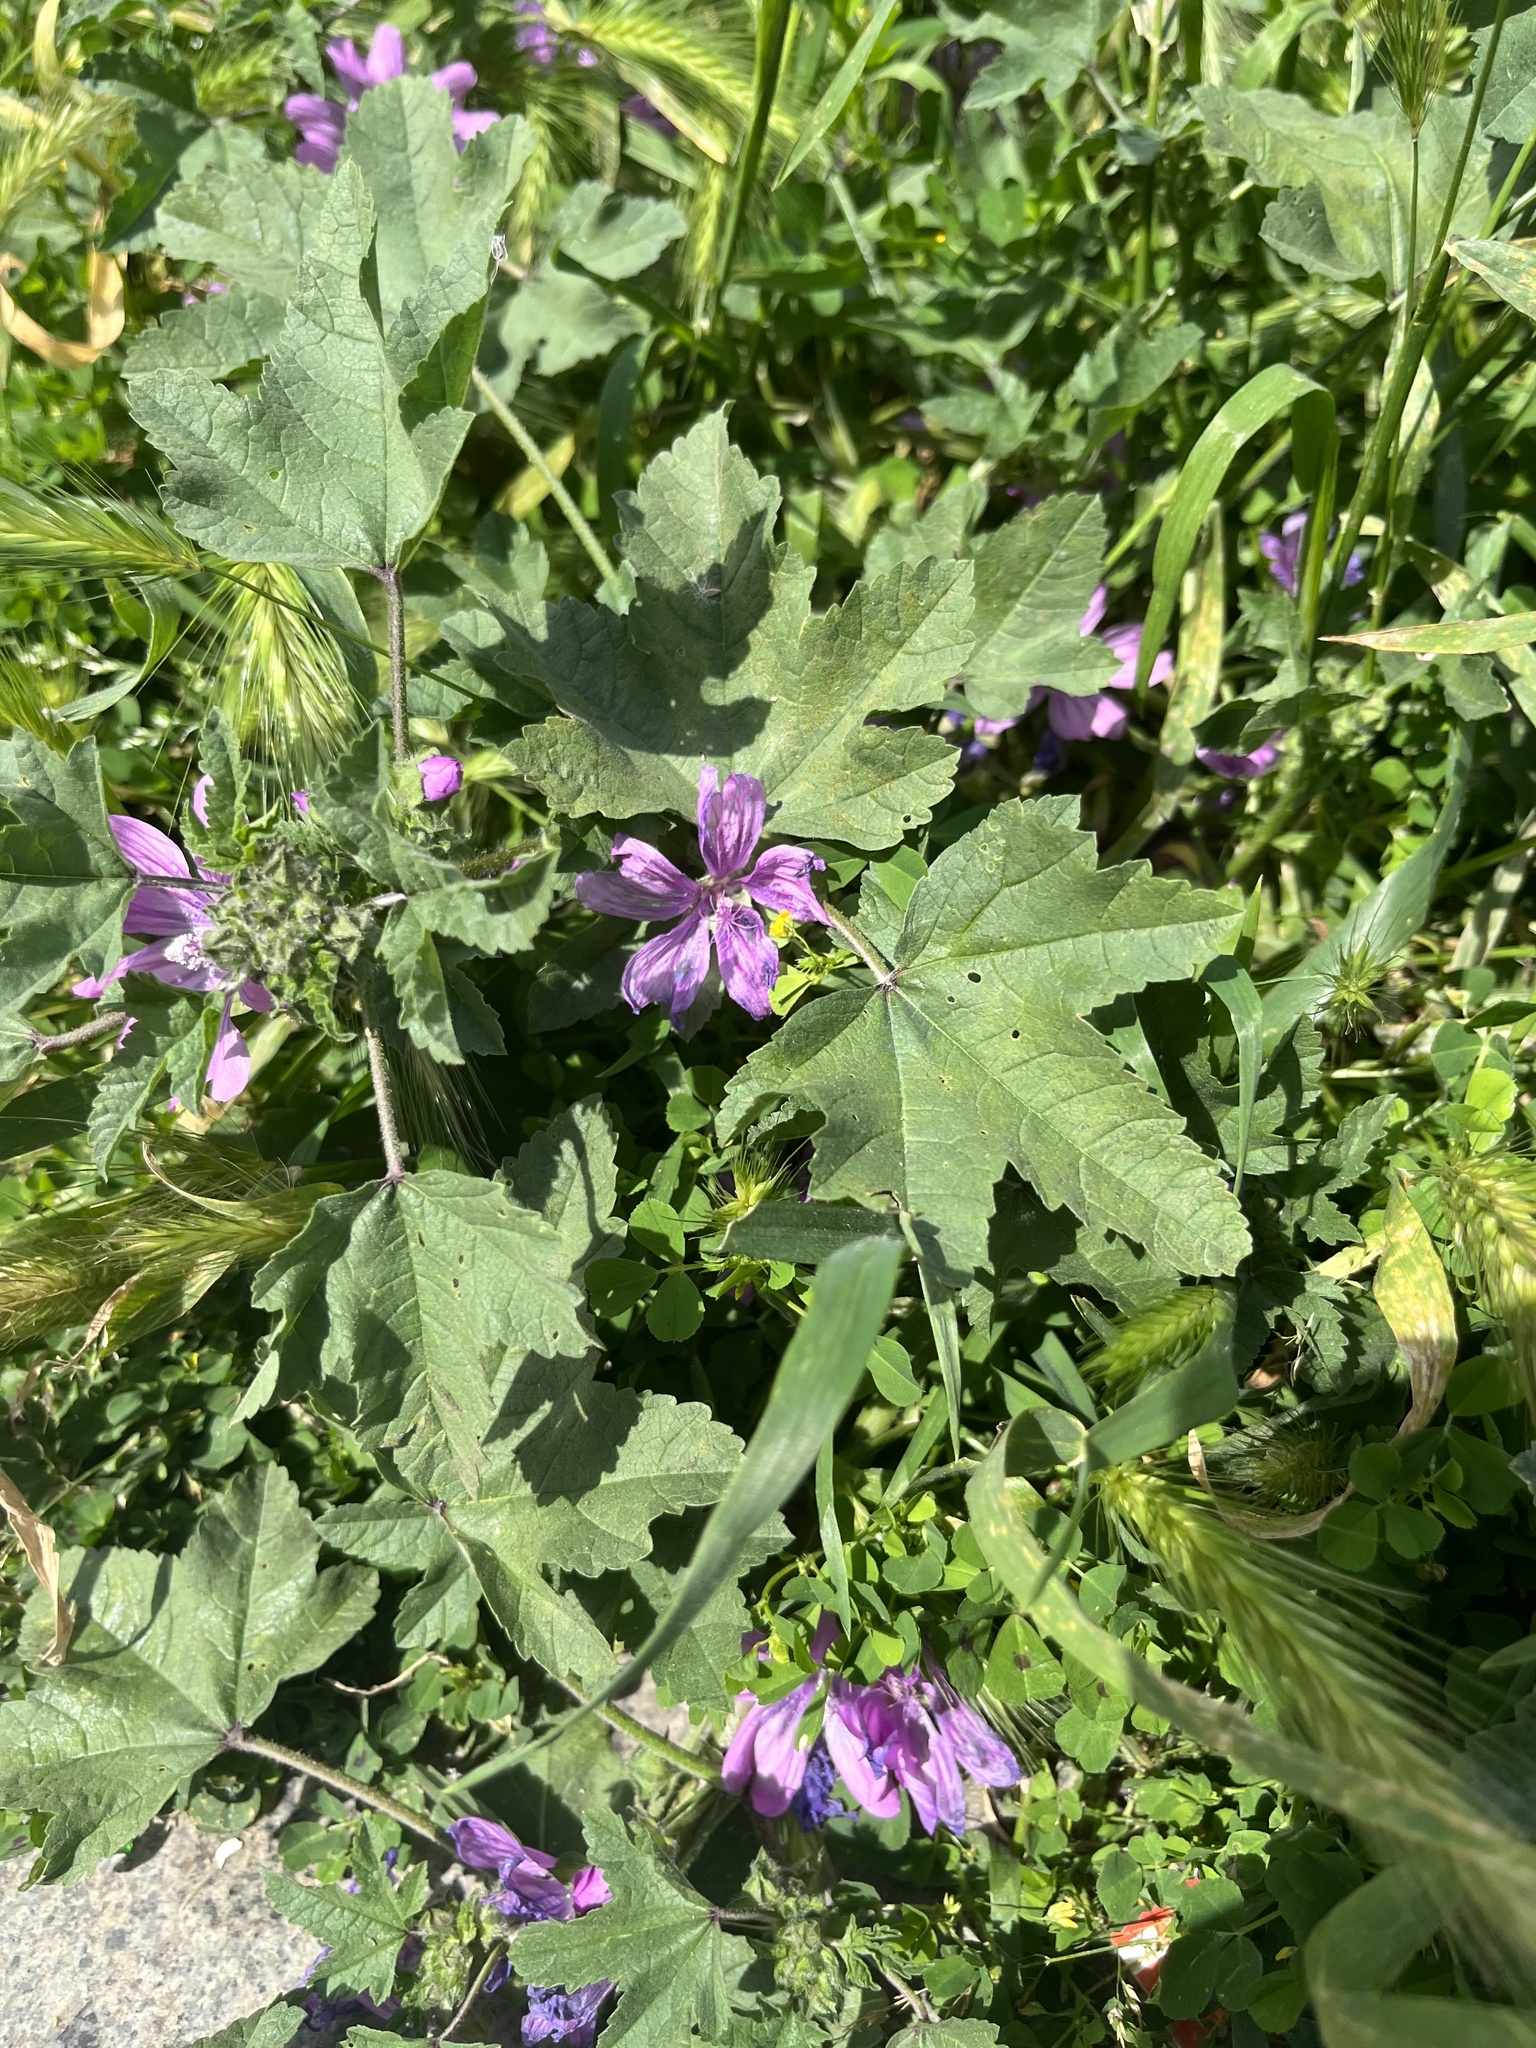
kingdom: Plantae
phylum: Tracheophyta
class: Magnoliopsida
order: Malvales
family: Malvaceae
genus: Malva
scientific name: Malva sylvestris
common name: Common mallow
